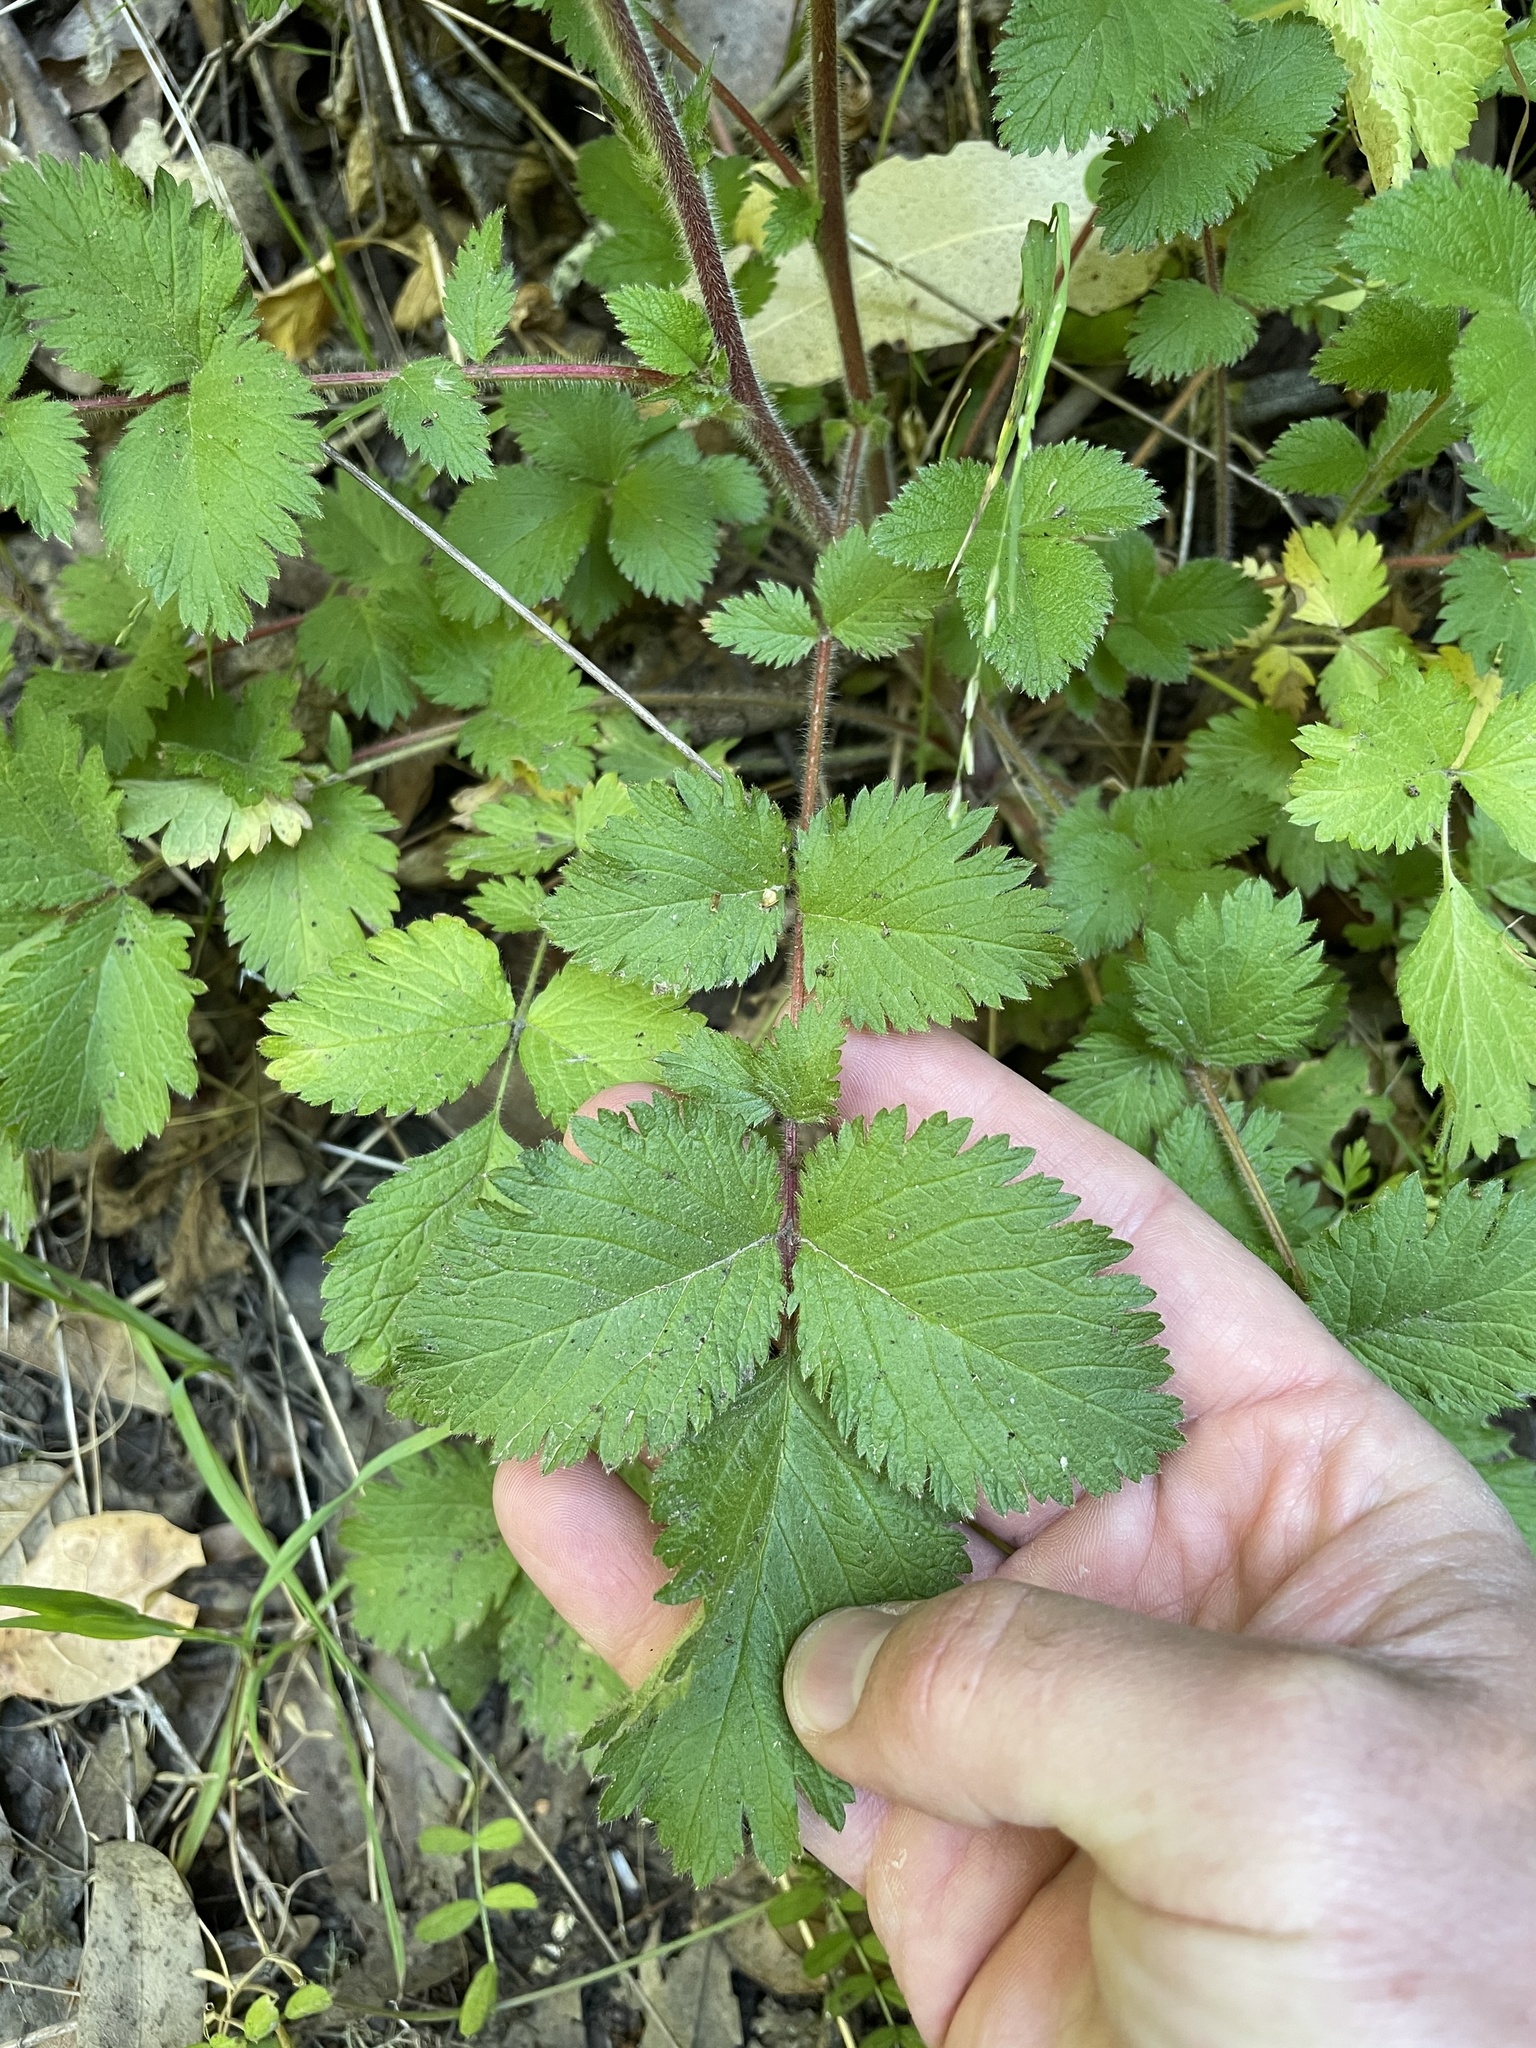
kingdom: Plantae
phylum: Tracheophyta
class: Magnoliopsida
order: Rosales
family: Rosaceae
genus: Drymocallis
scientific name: Drymocallis glandulosa
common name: Sticky cinquefoil
